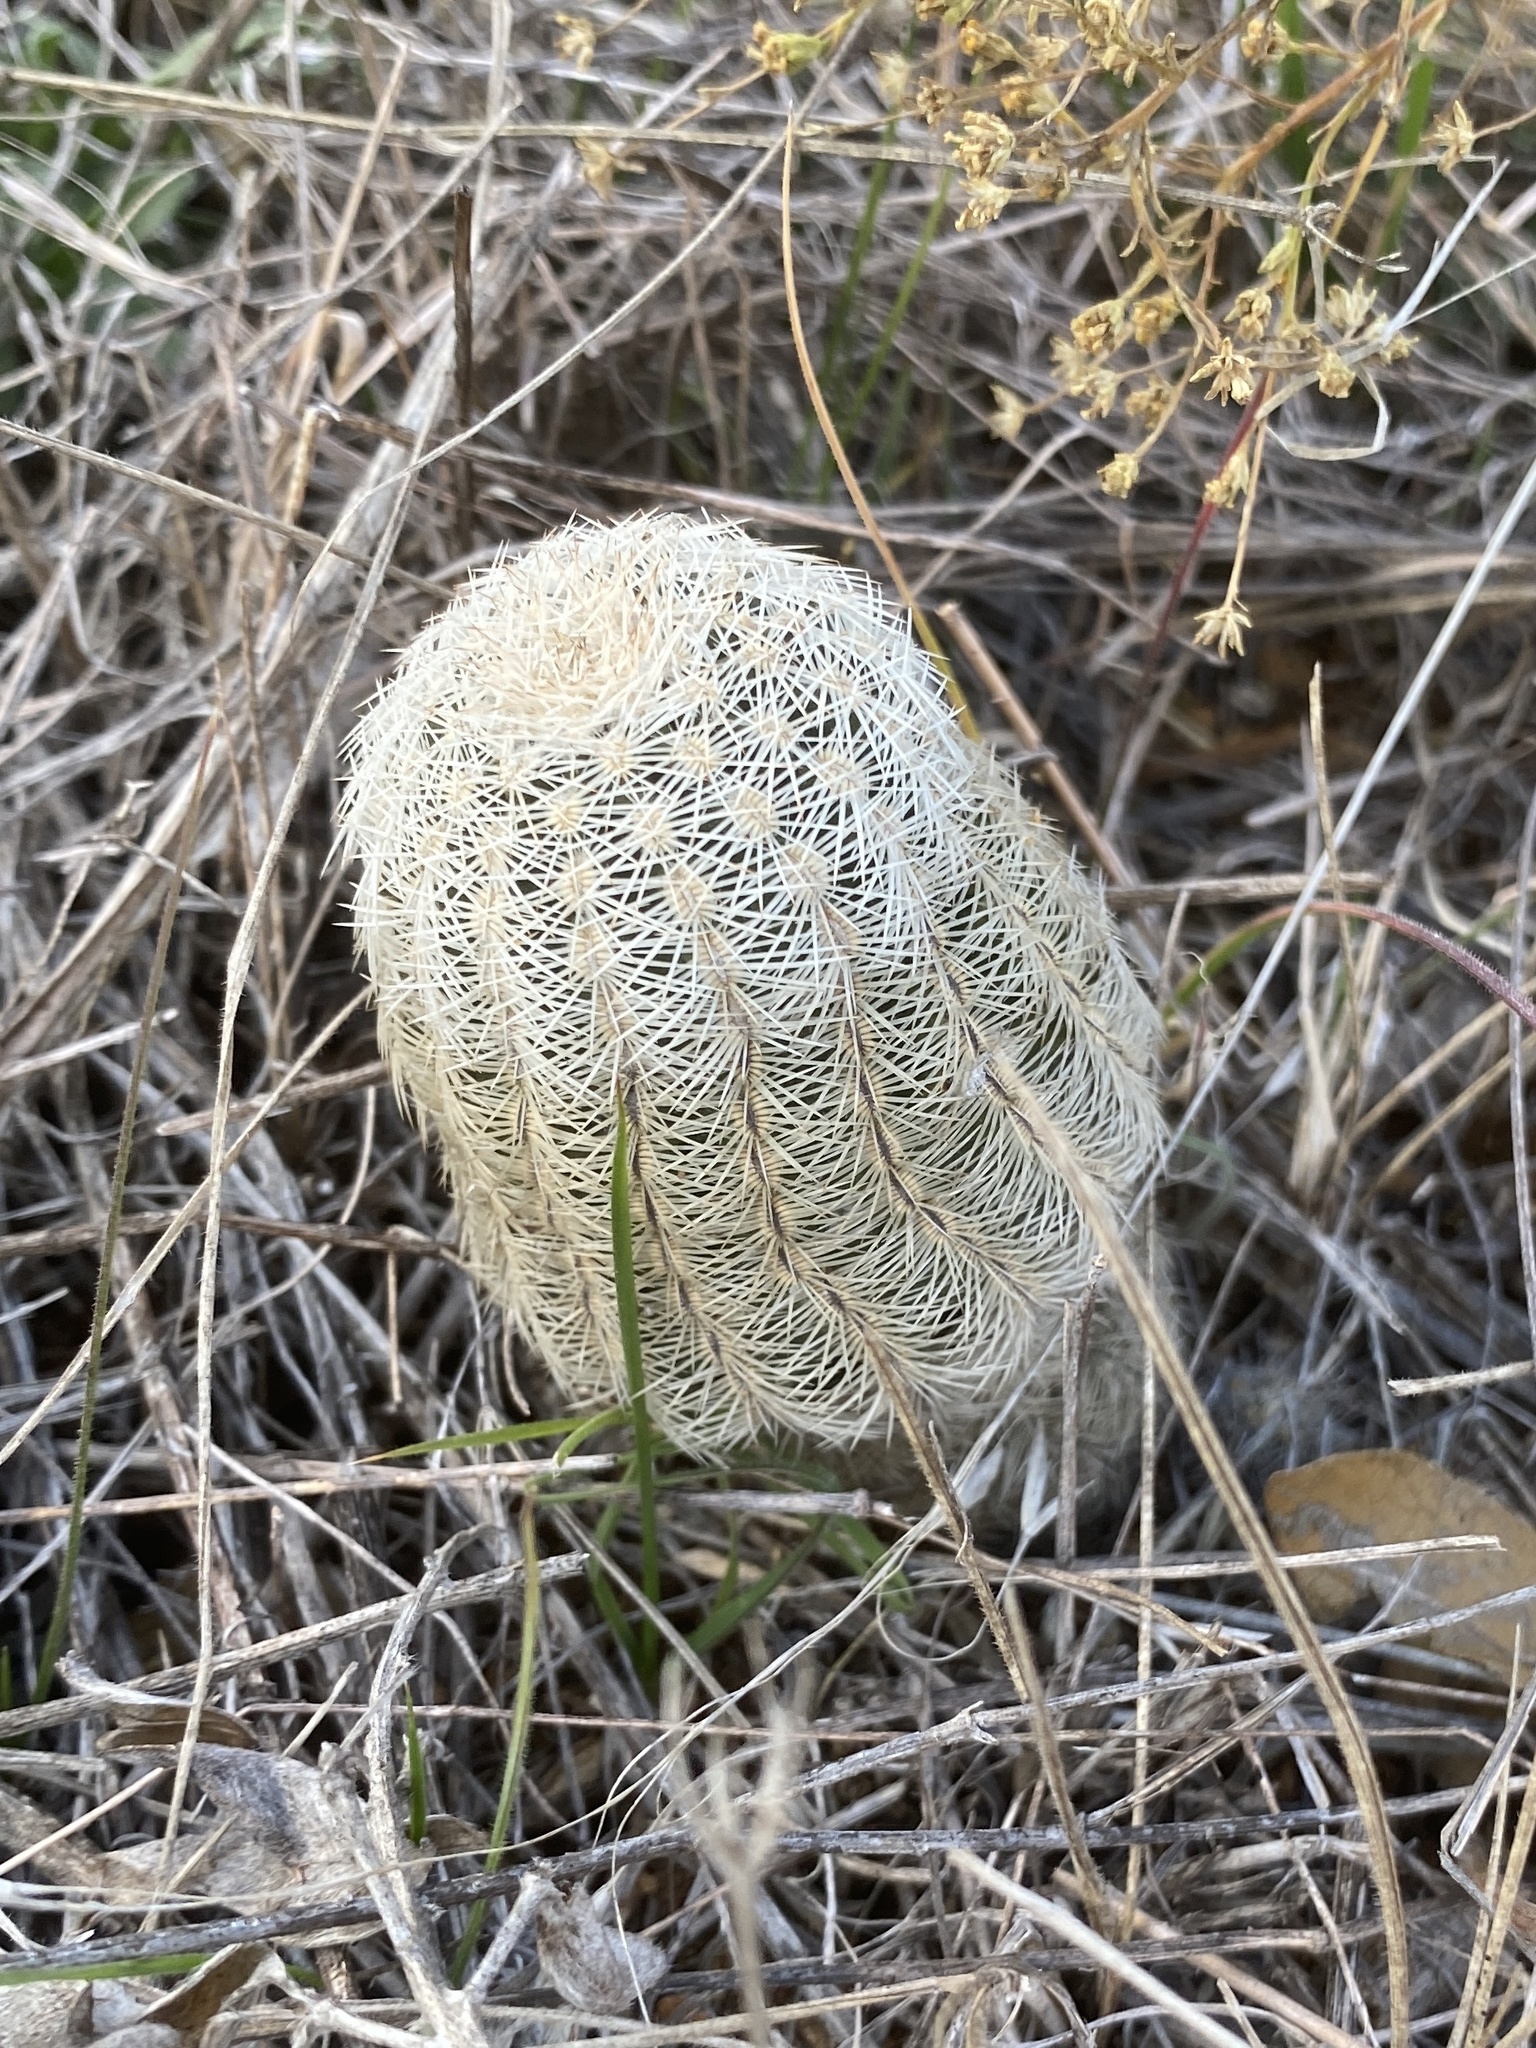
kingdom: Plantae
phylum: Tracheophyta
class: Magnoliopsida
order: Caryophyllales
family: Cactaceae
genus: Echinocereus
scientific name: Echinocereus reichenbachii
